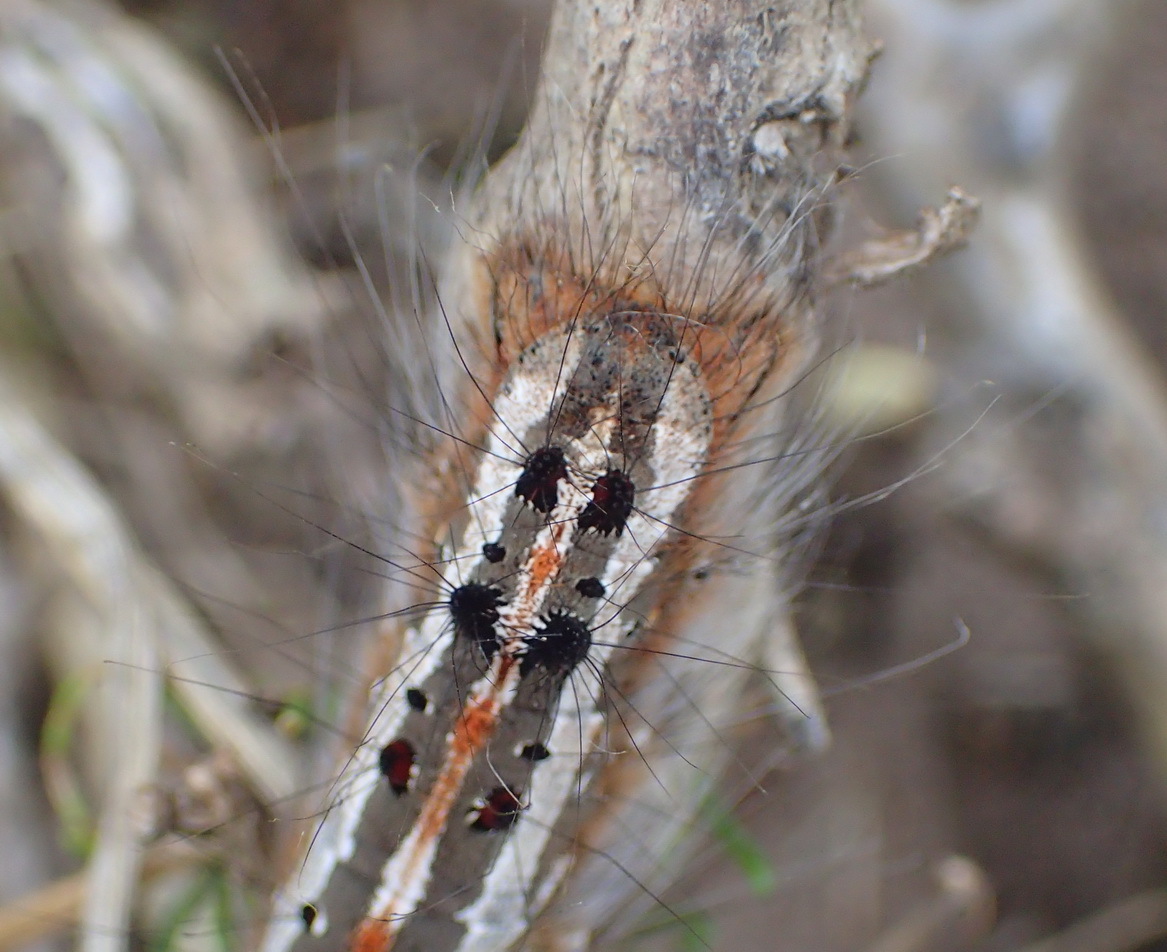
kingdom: Animalia
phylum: Arthropoda
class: Insecta
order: Lepidoptera
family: Lasiocampidae
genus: Streblote
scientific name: Streblote cristata
